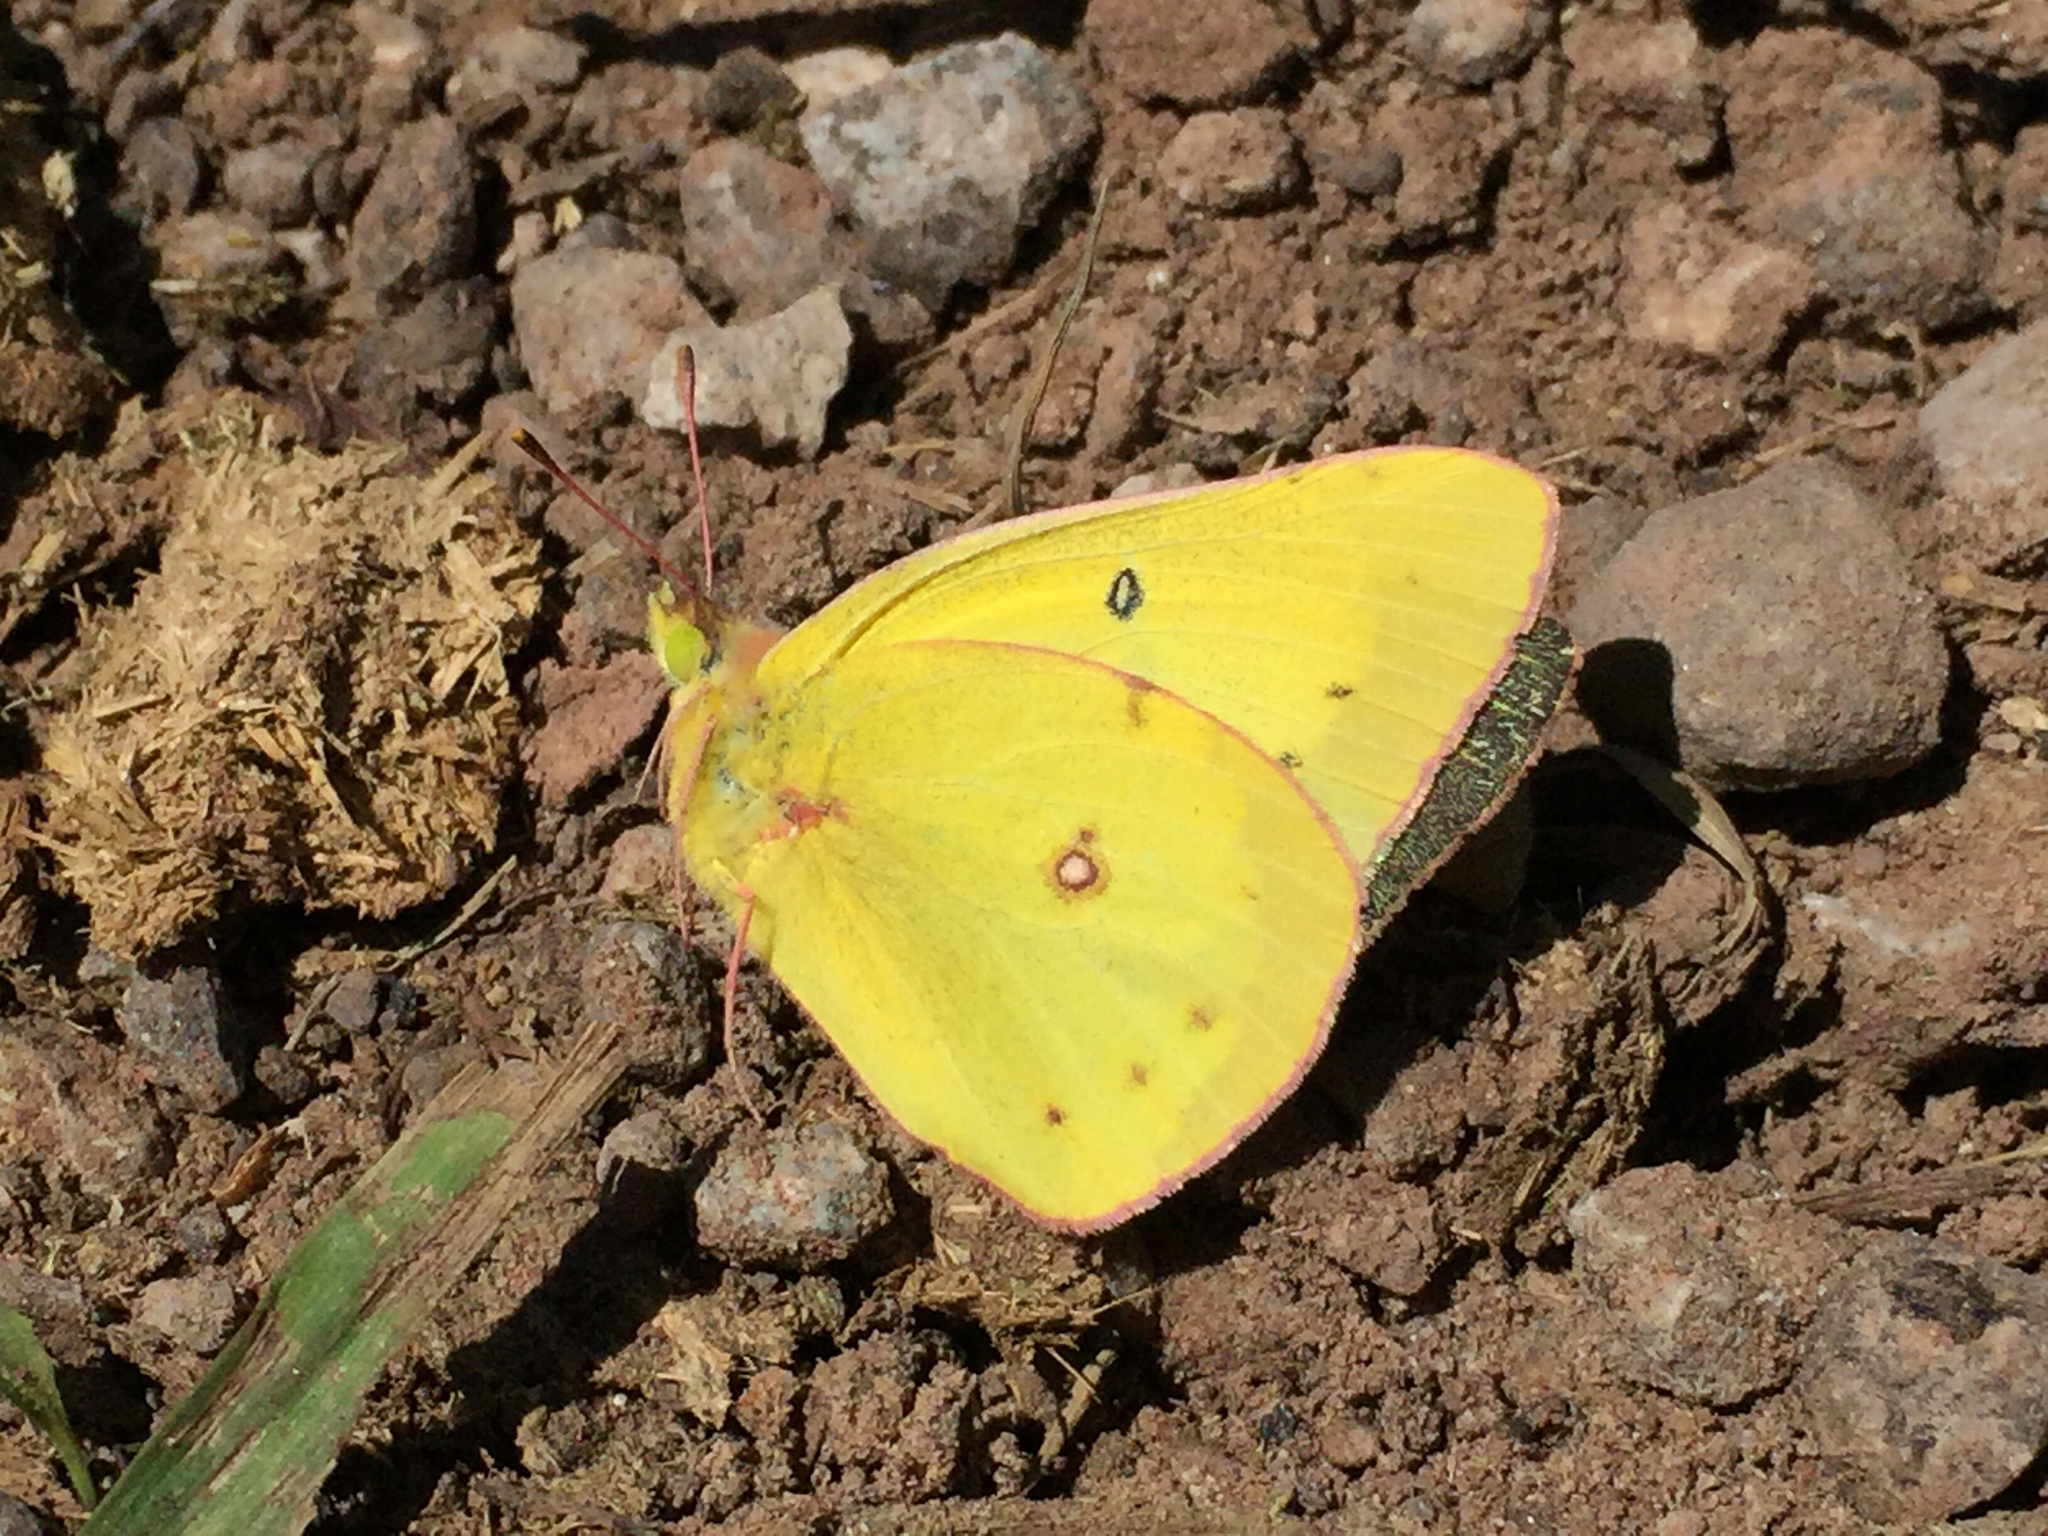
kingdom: Animalia
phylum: Arthropoda
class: Insecta
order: Lepidoptera
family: Pieridae
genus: Colias
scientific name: Colias philodice
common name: Clouded sulphur
